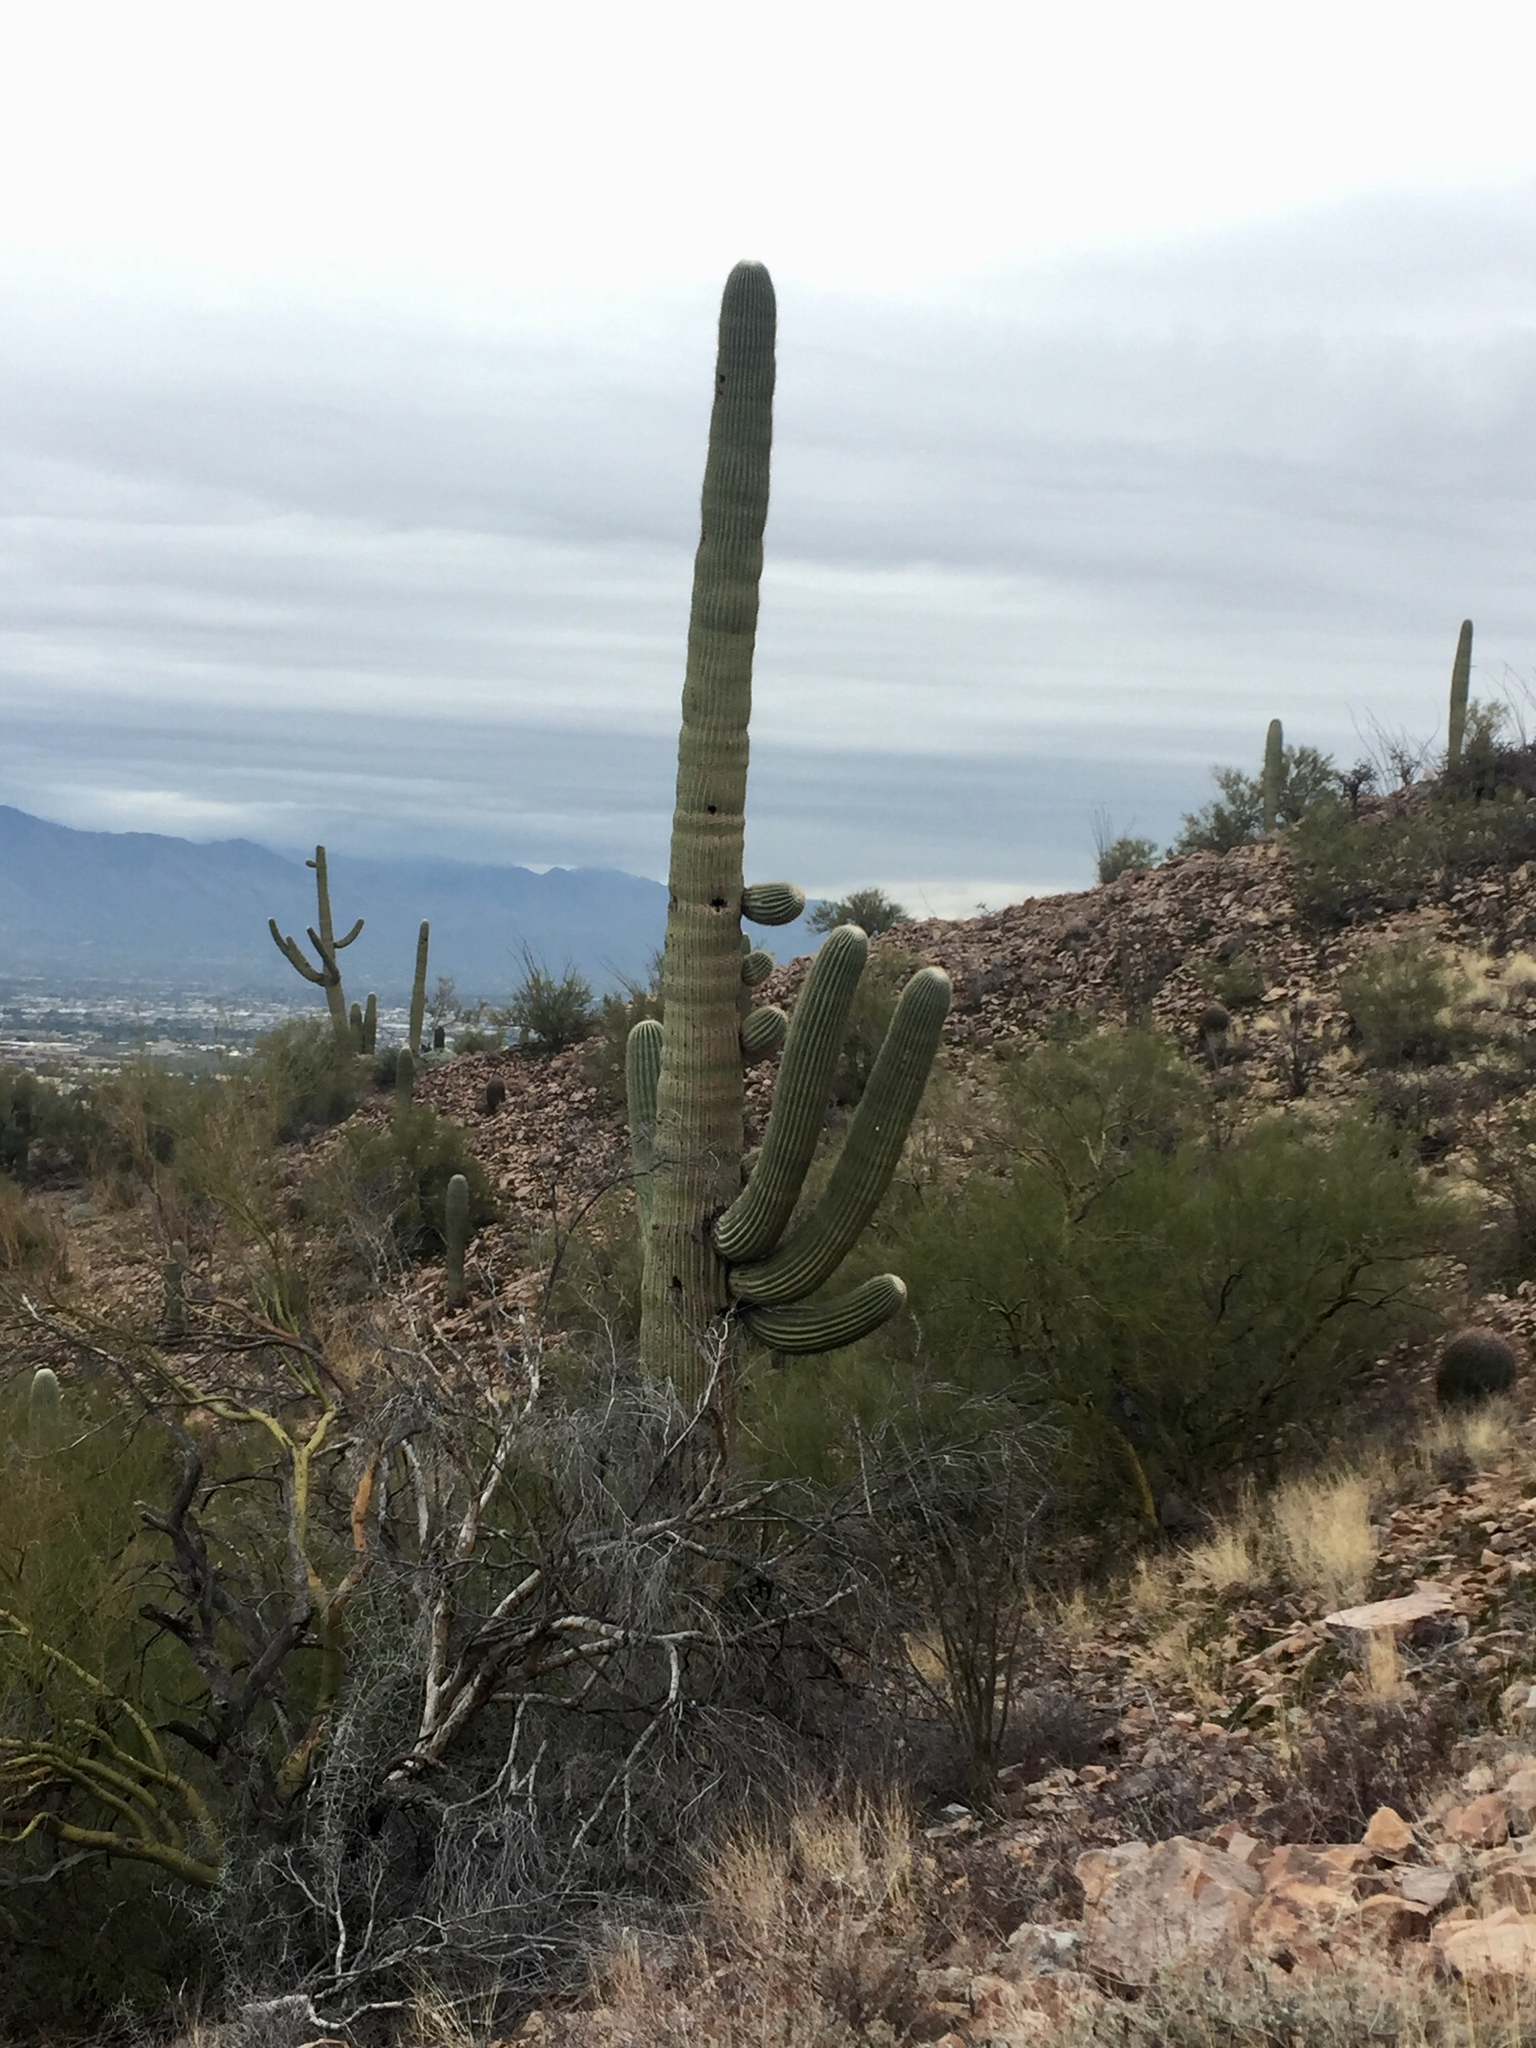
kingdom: Plantae
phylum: Tracheophyta
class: Magnoliopsida
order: Caryophyllales
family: Cactaceae
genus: Carnegiea
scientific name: Carnegiea gigantea
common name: Saguaro
